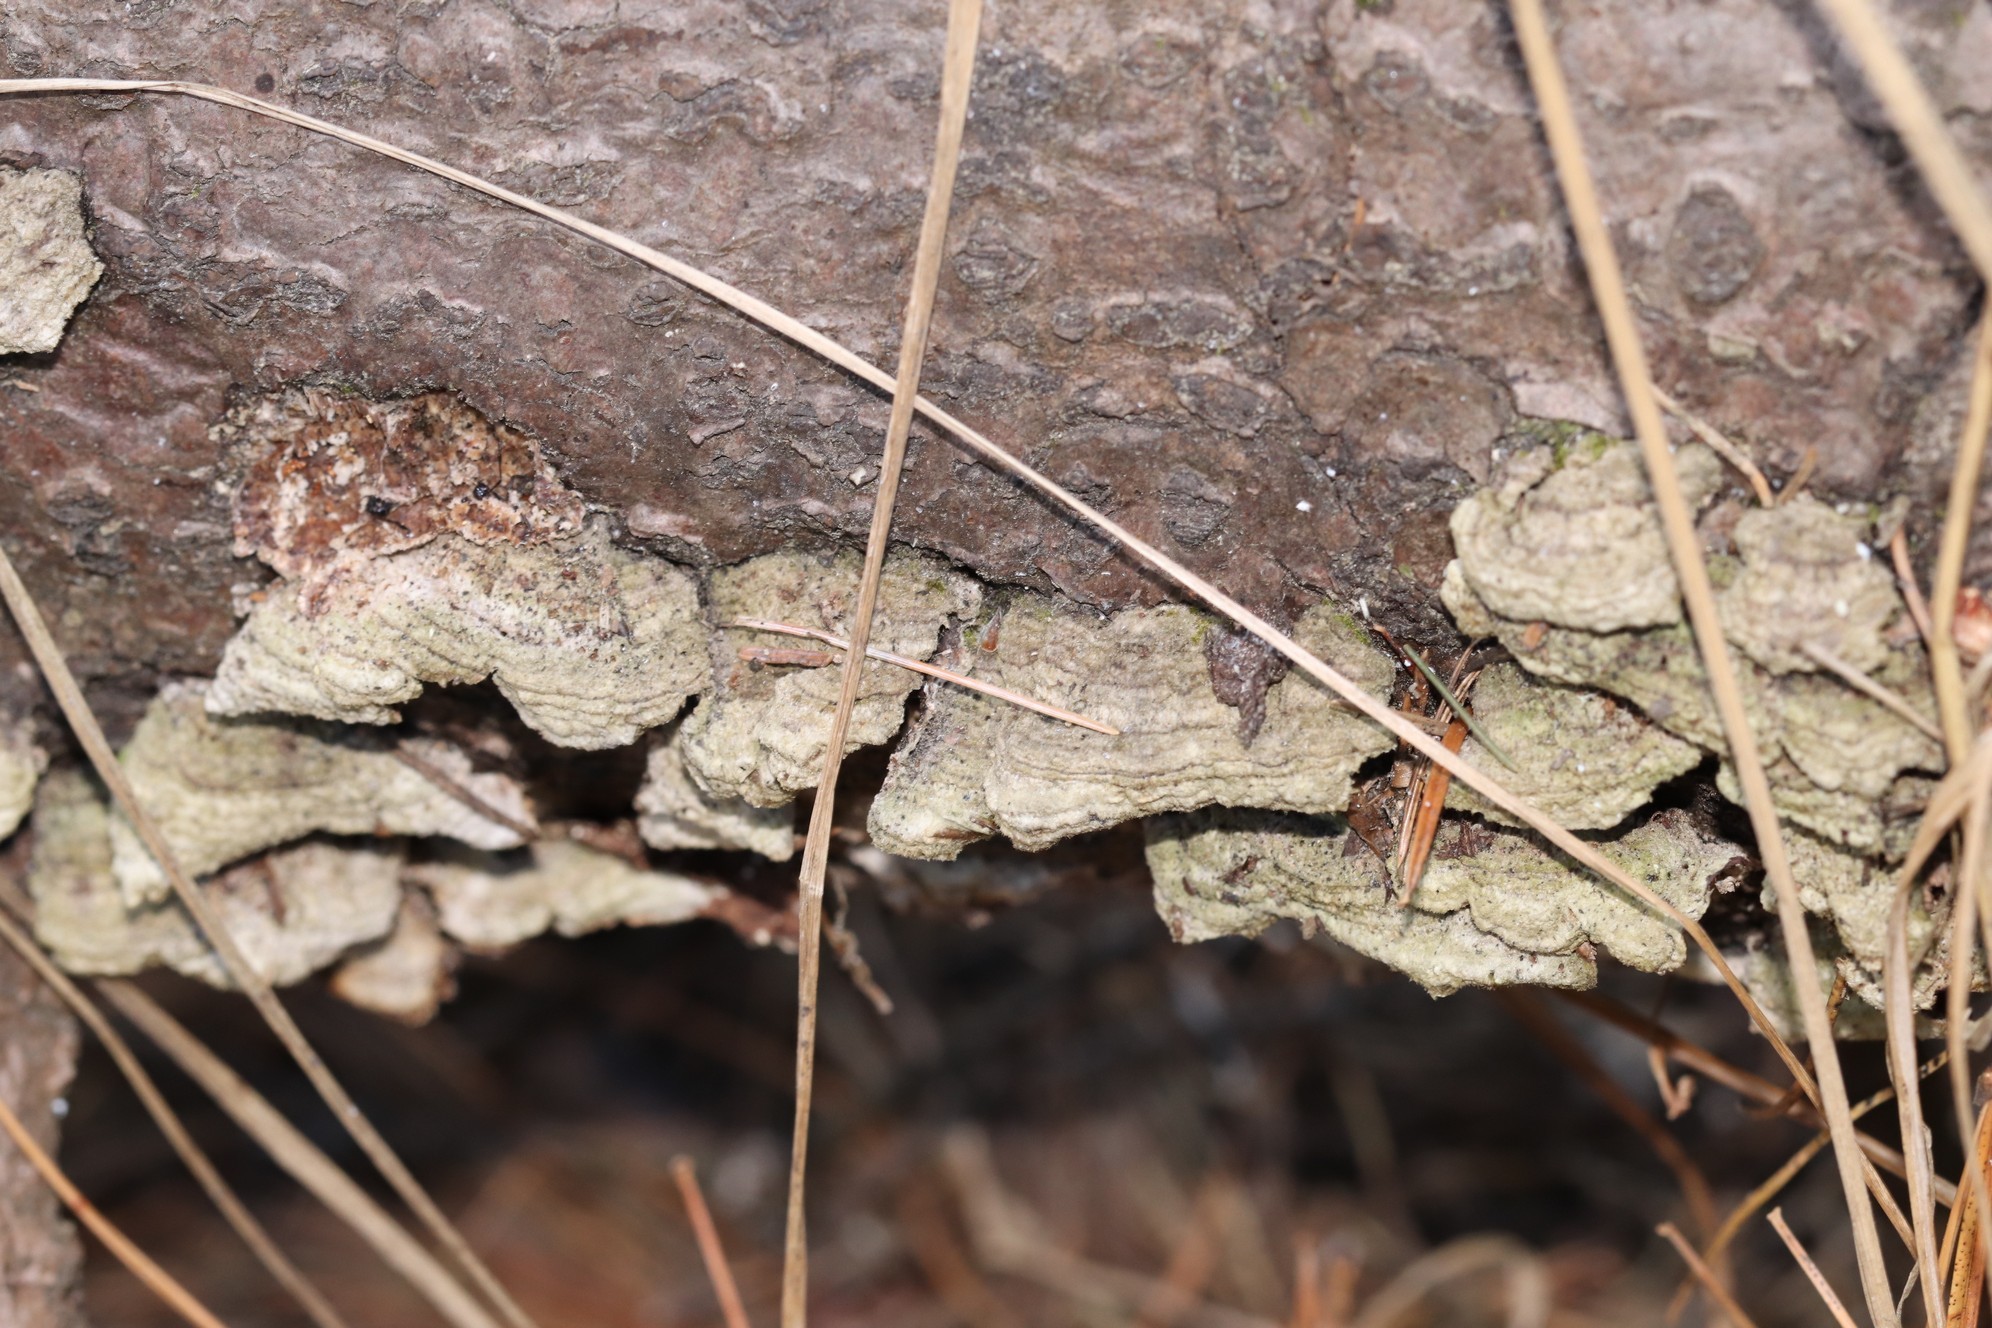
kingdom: Fungi
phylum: Basidiomycota
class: Agaricomycetes
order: Hymenochaetales
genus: Trichaptum
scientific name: Trichaptum fuscoviolaceum
